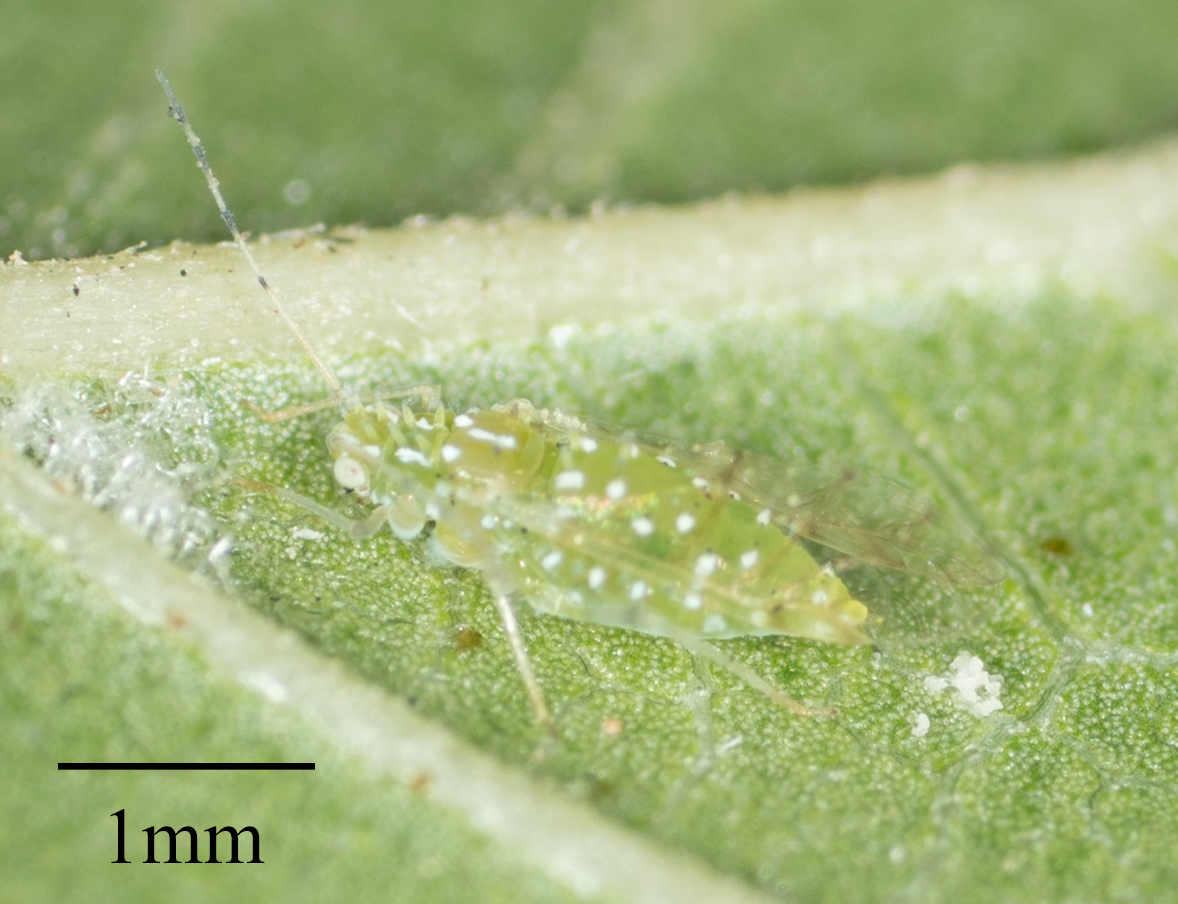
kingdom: Animalia
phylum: Arthropoda
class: Insecta
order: Hemiptera
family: Aphididae
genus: Tinocallis
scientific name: Tinocallis ulmiparvifoliae
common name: Aphid
